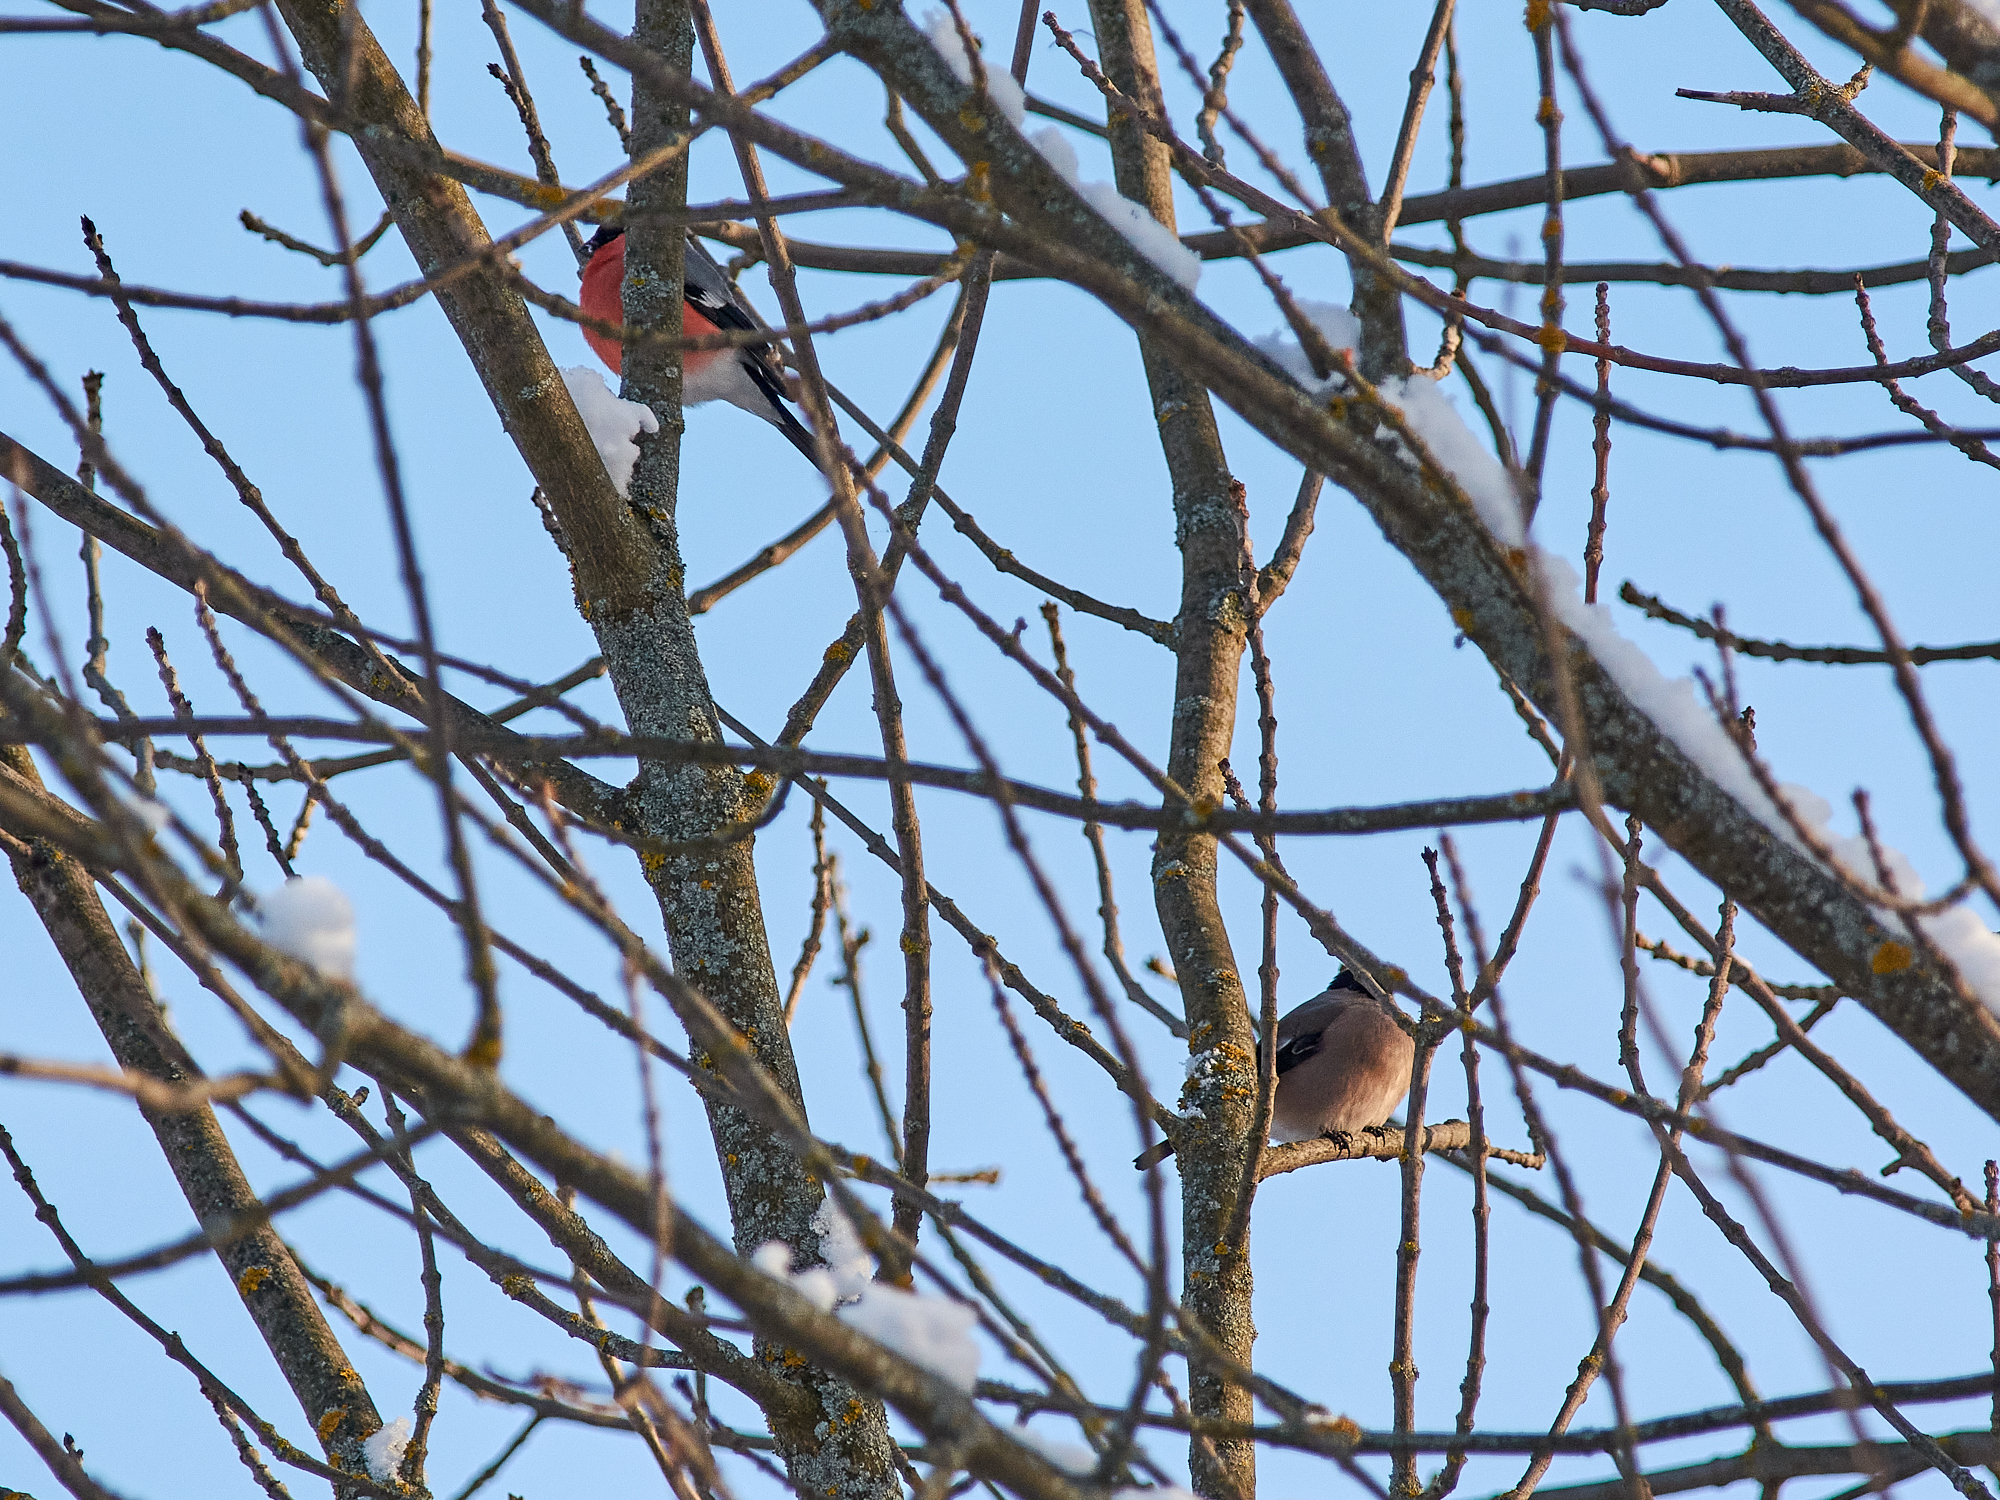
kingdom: Animalia
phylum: Chordata
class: Aves
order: Passeriformes
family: Fringillidae
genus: Pyrrhula
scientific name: Pyrrhula pyrrhula
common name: Eurasian bullfinch
